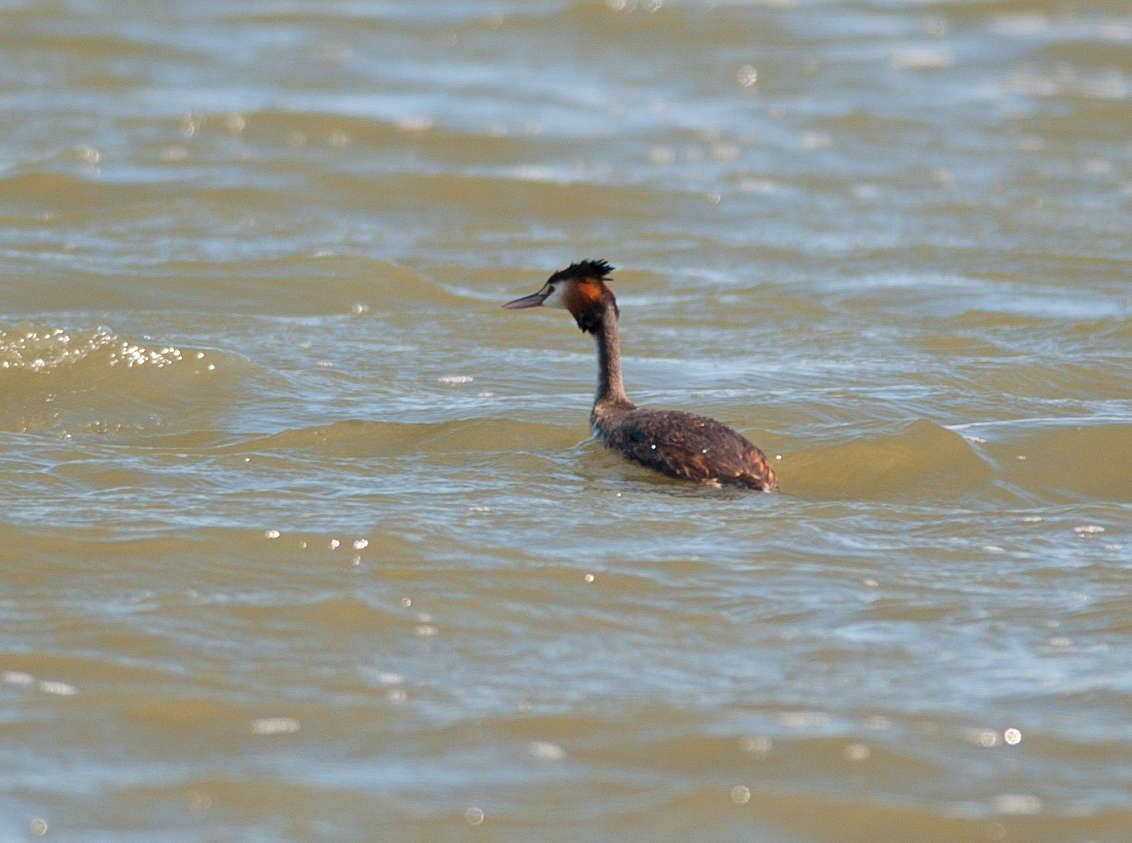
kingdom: Animalia
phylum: Chordata
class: Aves
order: Podicipediformes
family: Podicipedidae
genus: Podiceps
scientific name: Podiceps cristatus
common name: Great crested grebe
